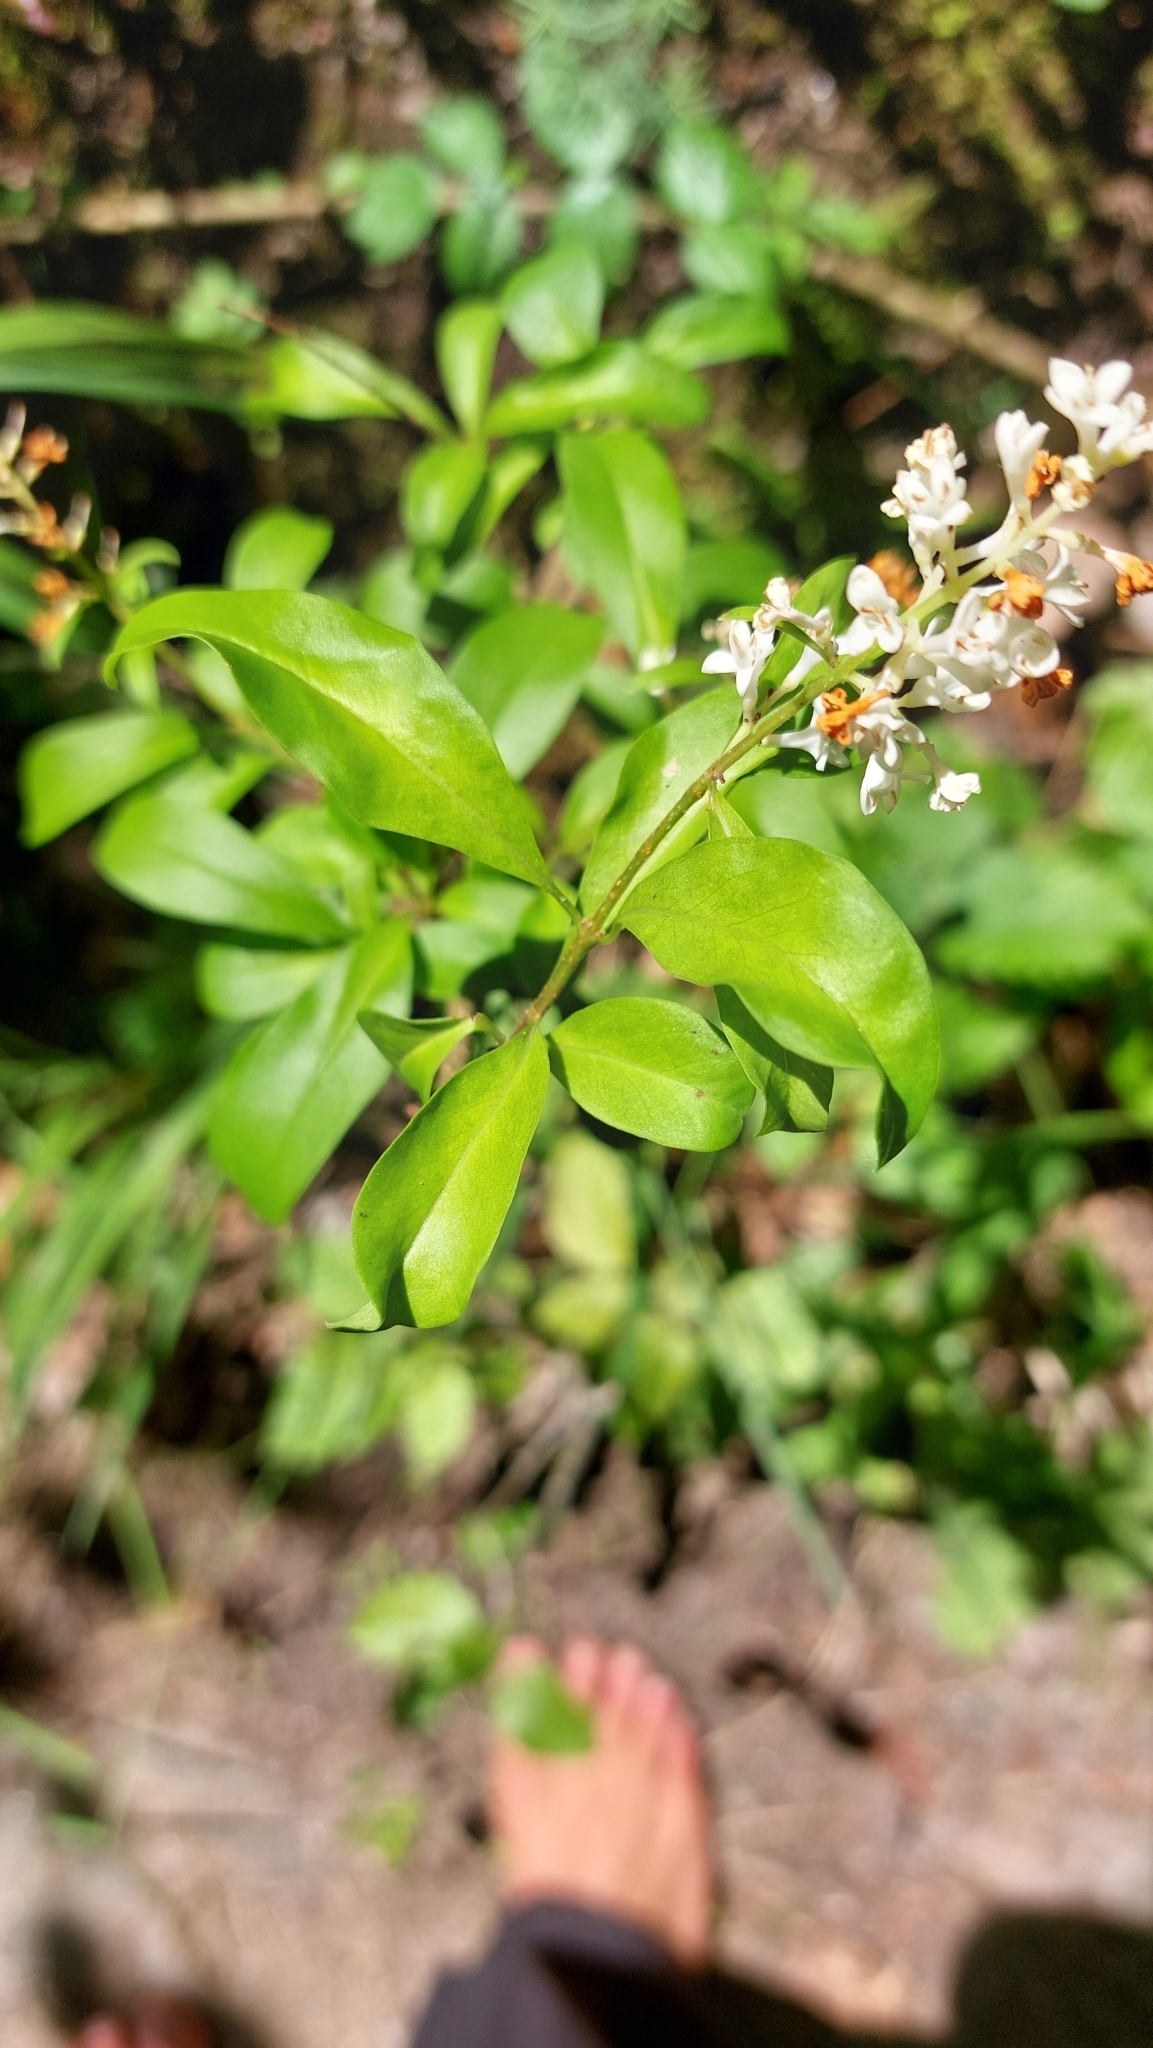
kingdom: Plantae
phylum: Tracheophyta
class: Magnoliopsida
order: Lamiales
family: Oleaceae
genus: Ligustrum
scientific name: Ligustrum vulgare
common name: Wild privet
